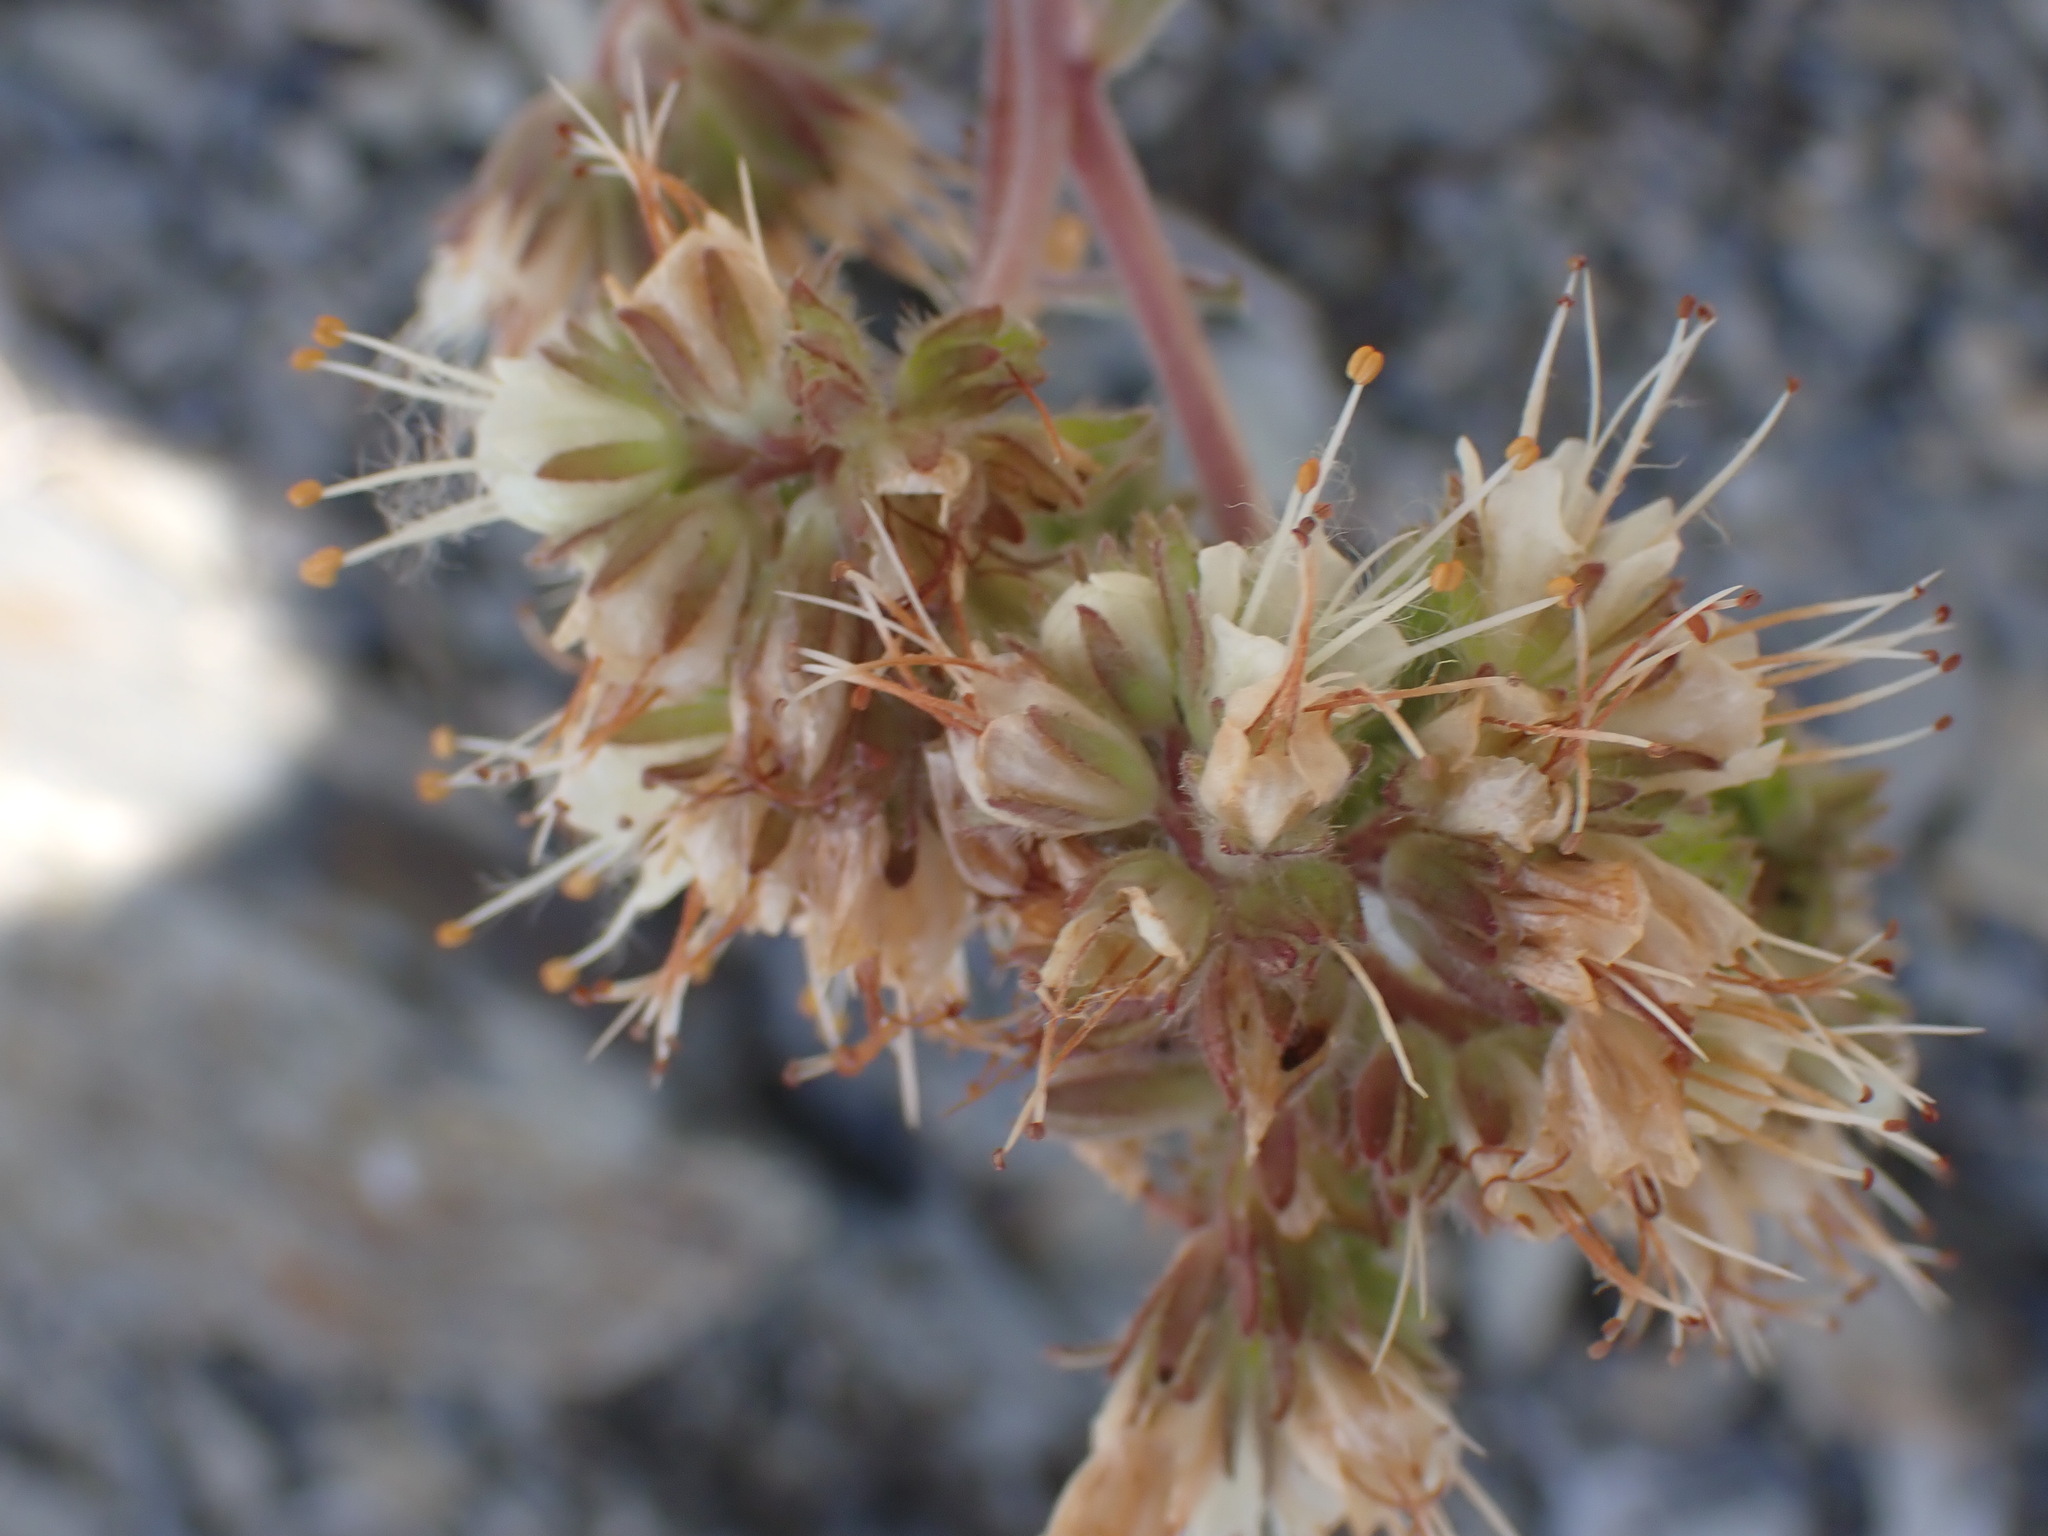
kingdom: Plantae
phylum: Tracheophyta
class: Magnoliopsida
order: Boraginales
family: Hydrophyllaceae
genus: Phacelia
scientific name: Phacelia hastata
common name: Silver-leaved phacelia
